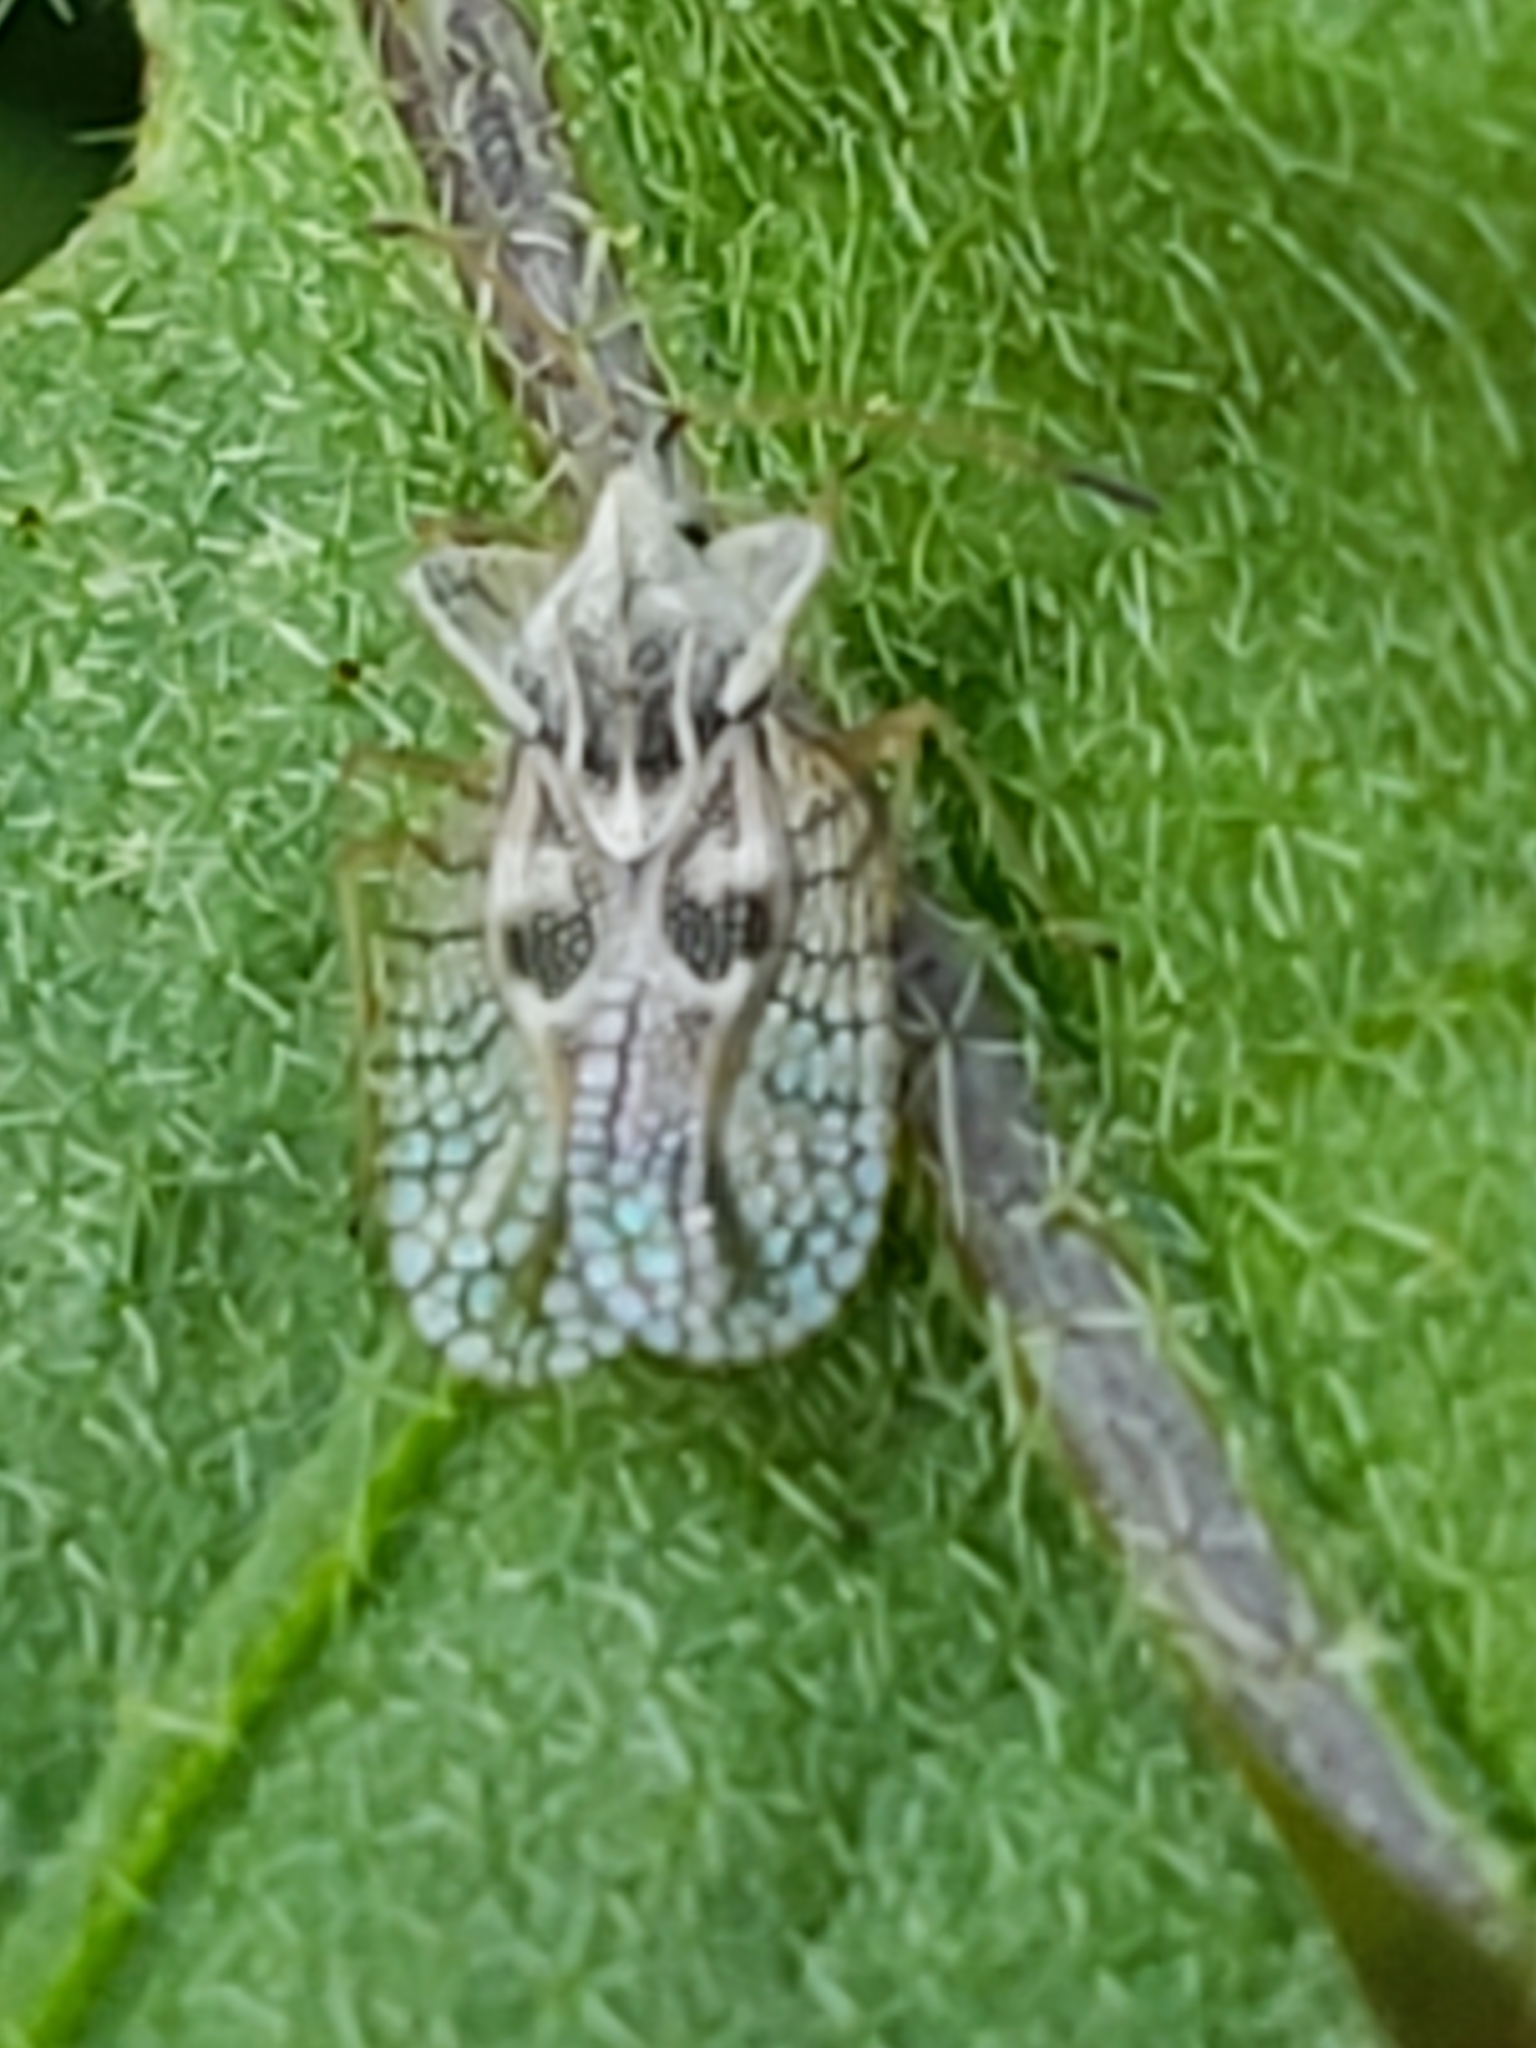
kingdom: Animalia
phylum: Arthropoda
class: Insecta
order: Hemiptera
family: Tingidae
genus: Gargaphia
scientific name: Gargaphia solani
